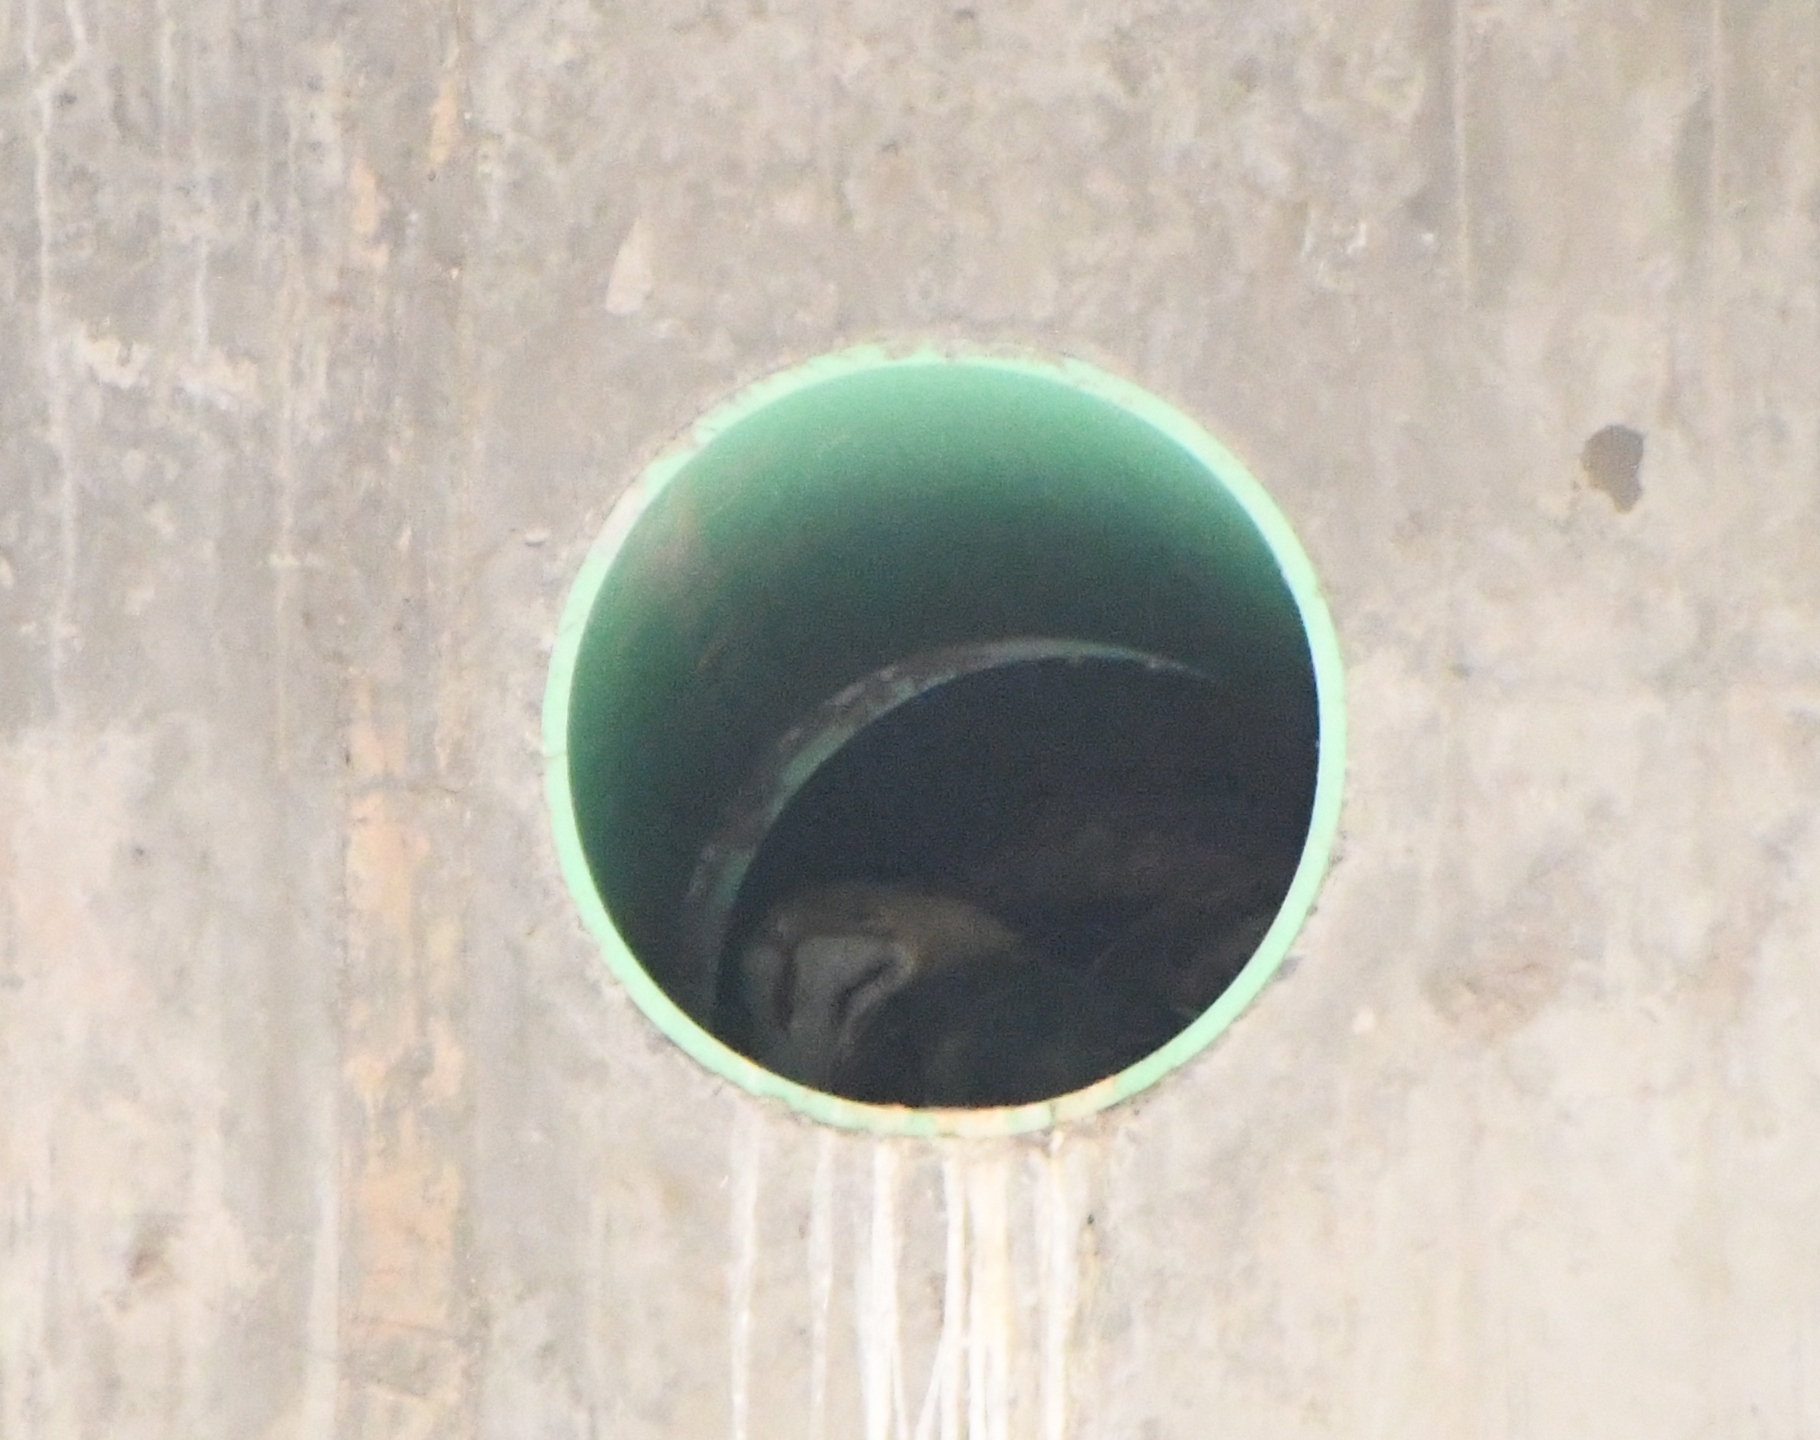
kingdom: Animalia
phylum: Chordata
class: Aves
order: Strigiformes
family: Tytonidae
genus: Tyto
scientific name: Tyto alba
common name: Barn owl
